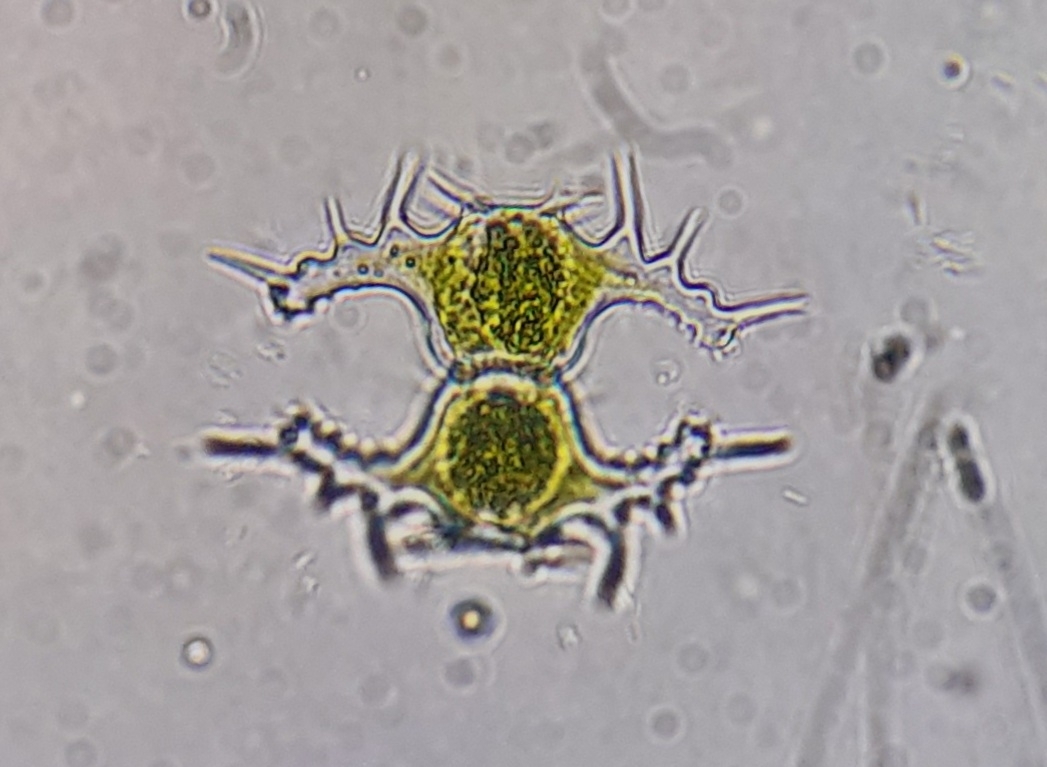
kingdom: Plantae
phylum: Charophyta
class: Conjugatophyceae
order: Desmidiales
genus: Staurastrum
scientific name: Staurastrum saltans
